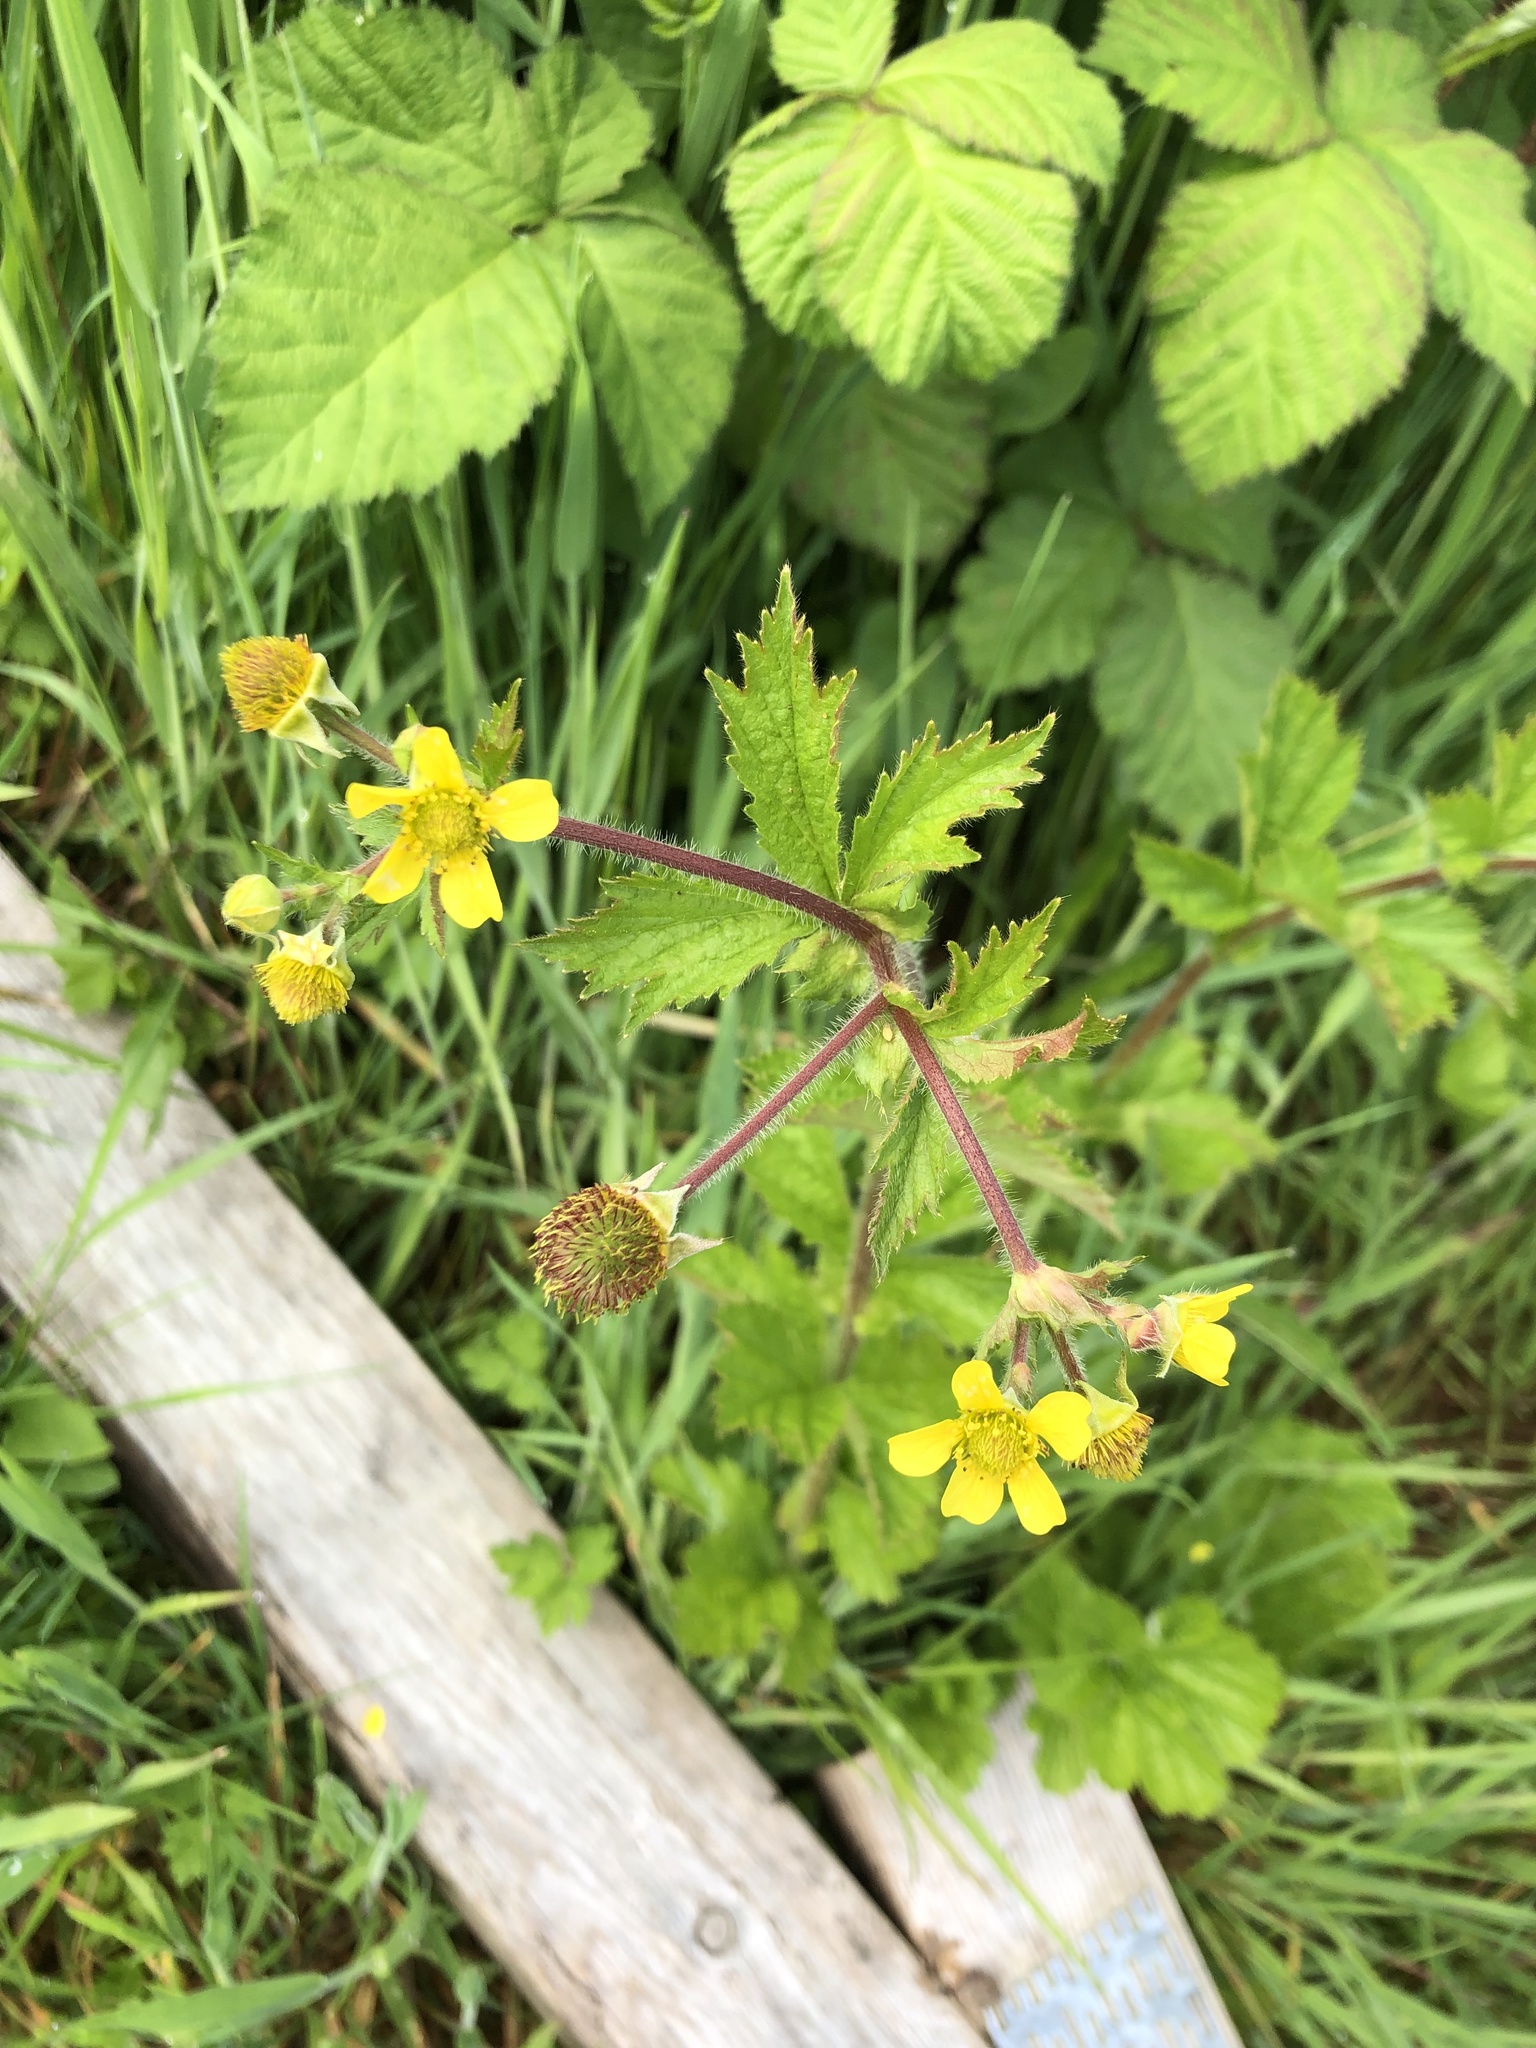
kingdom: Plantae
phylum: Tracheophyta
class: Magnoliopsida
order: Rosales
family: Rosaceae
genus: Geum
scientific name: Geum macrophyllum
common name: Large-leaved avens
